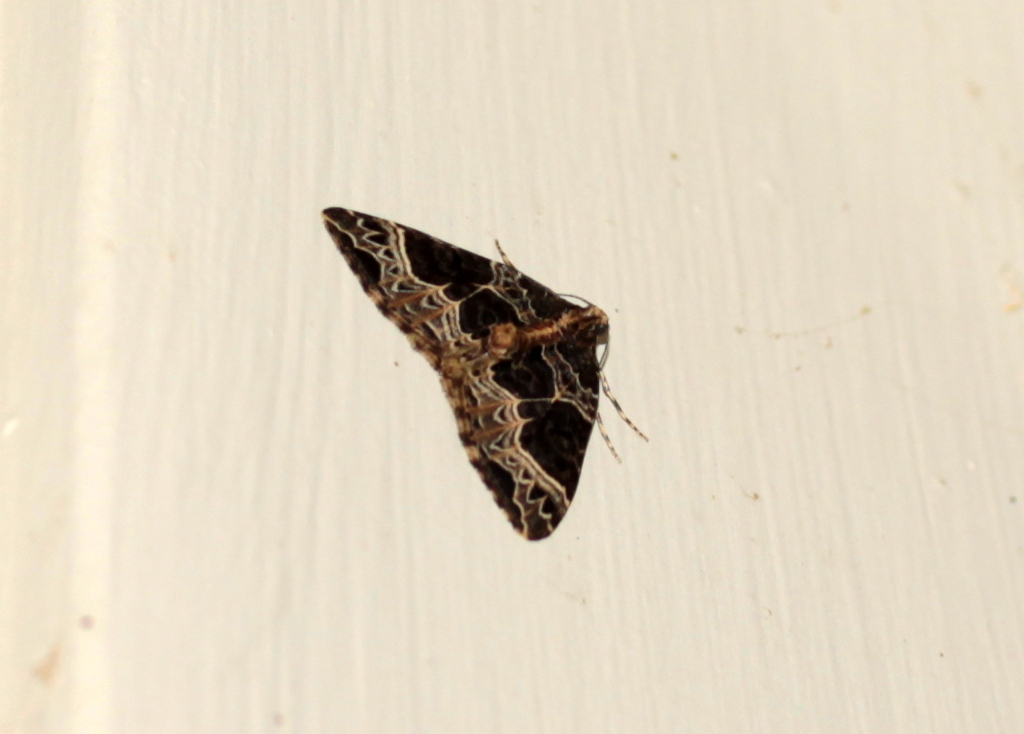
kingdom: Animalia
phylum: Arthropoda
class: Insecta
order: Lepidoptera
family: Geometridae
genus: Ecliptopera
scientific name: Ecliptopera silaceata
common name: Small phoenix
